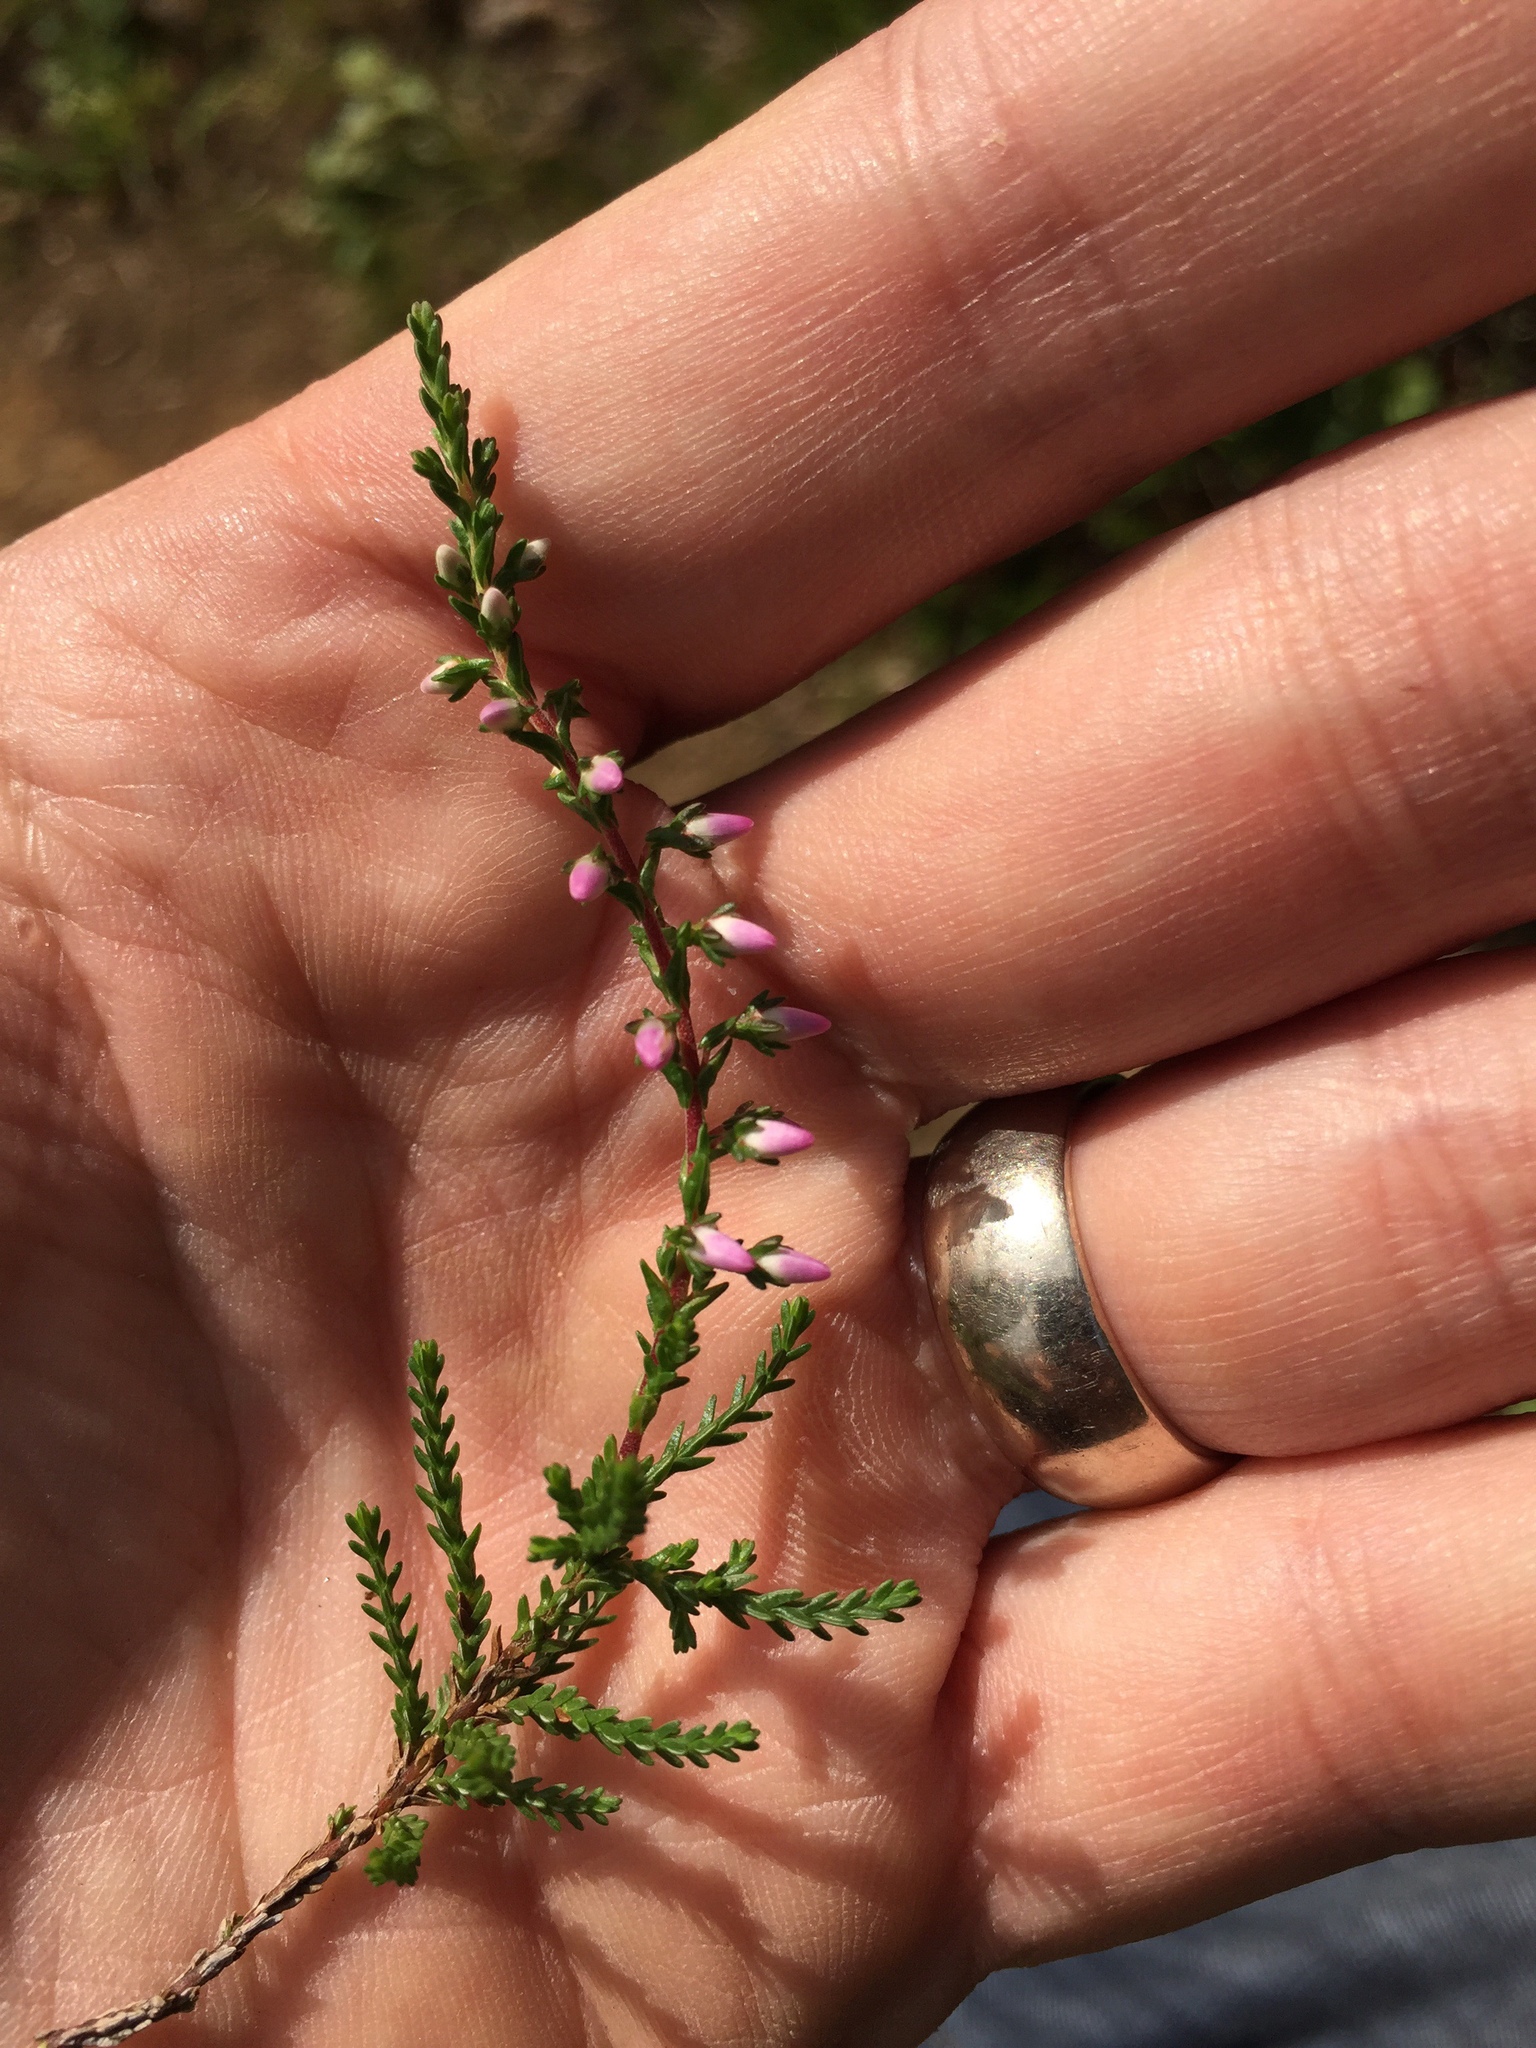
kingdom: Plantae
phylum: Tracheophyta
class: Magnoliopsida
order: Ericales
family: Ericaceae
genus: Calluna
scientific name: Calluna vulgaris
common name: Heather
